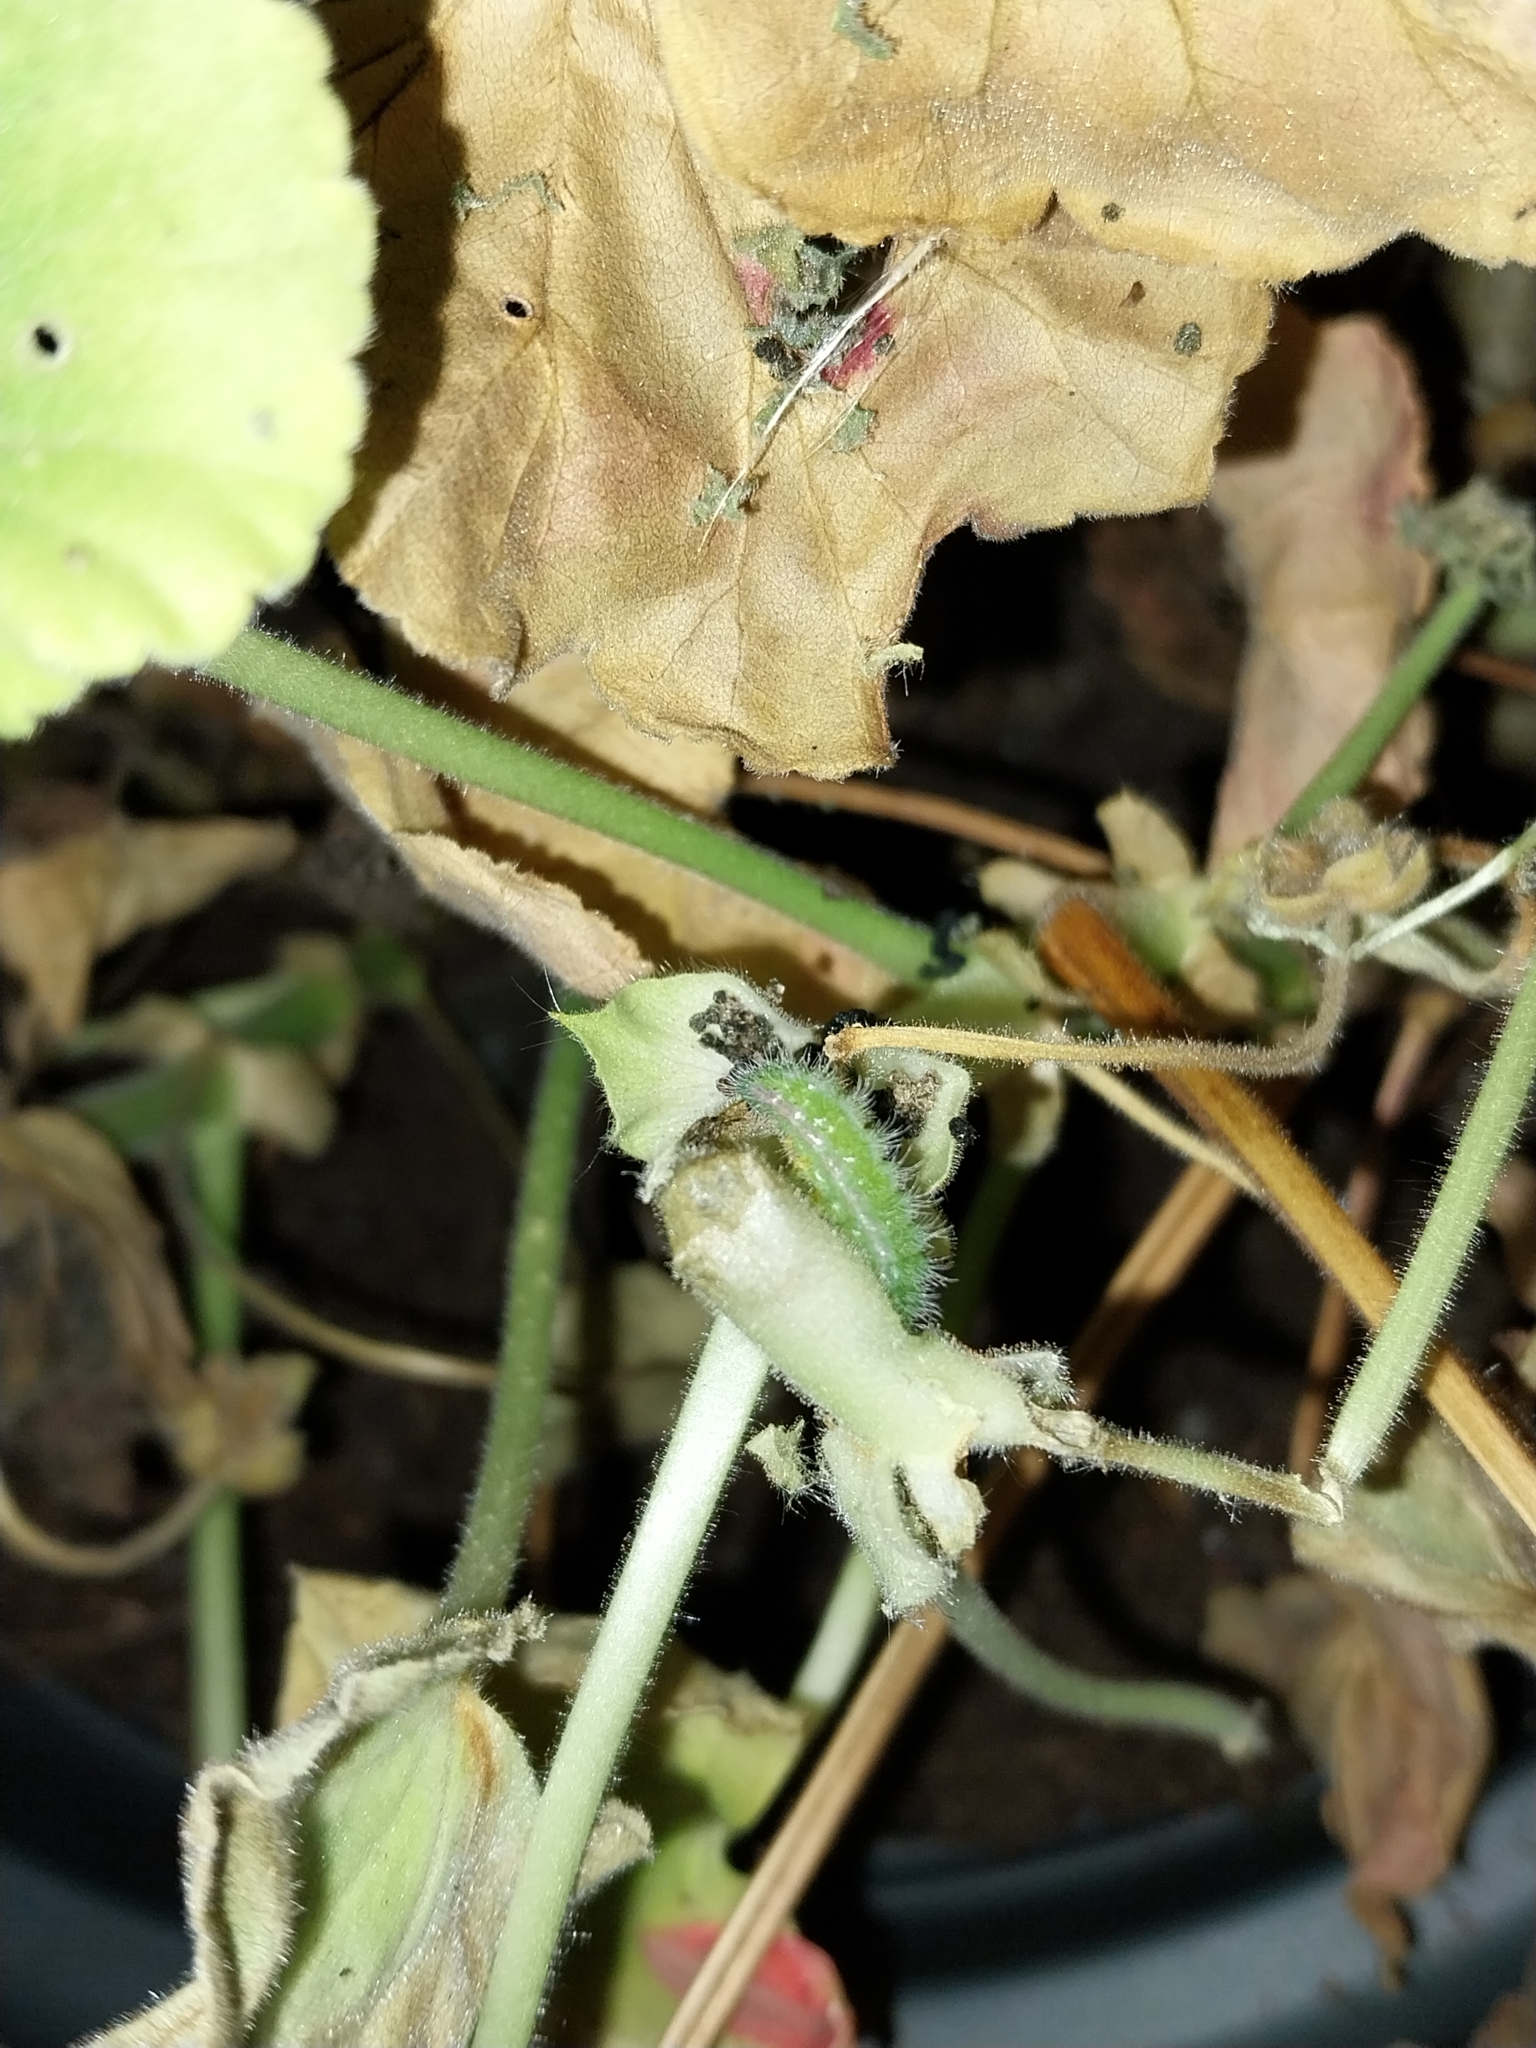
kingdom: Animalia
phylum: Arthropoda
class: Insecta
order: Lepidoptera
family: Lycaenidae
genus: Cacyreus
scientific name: Cacyreus marshalli
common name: Geranium bronze
